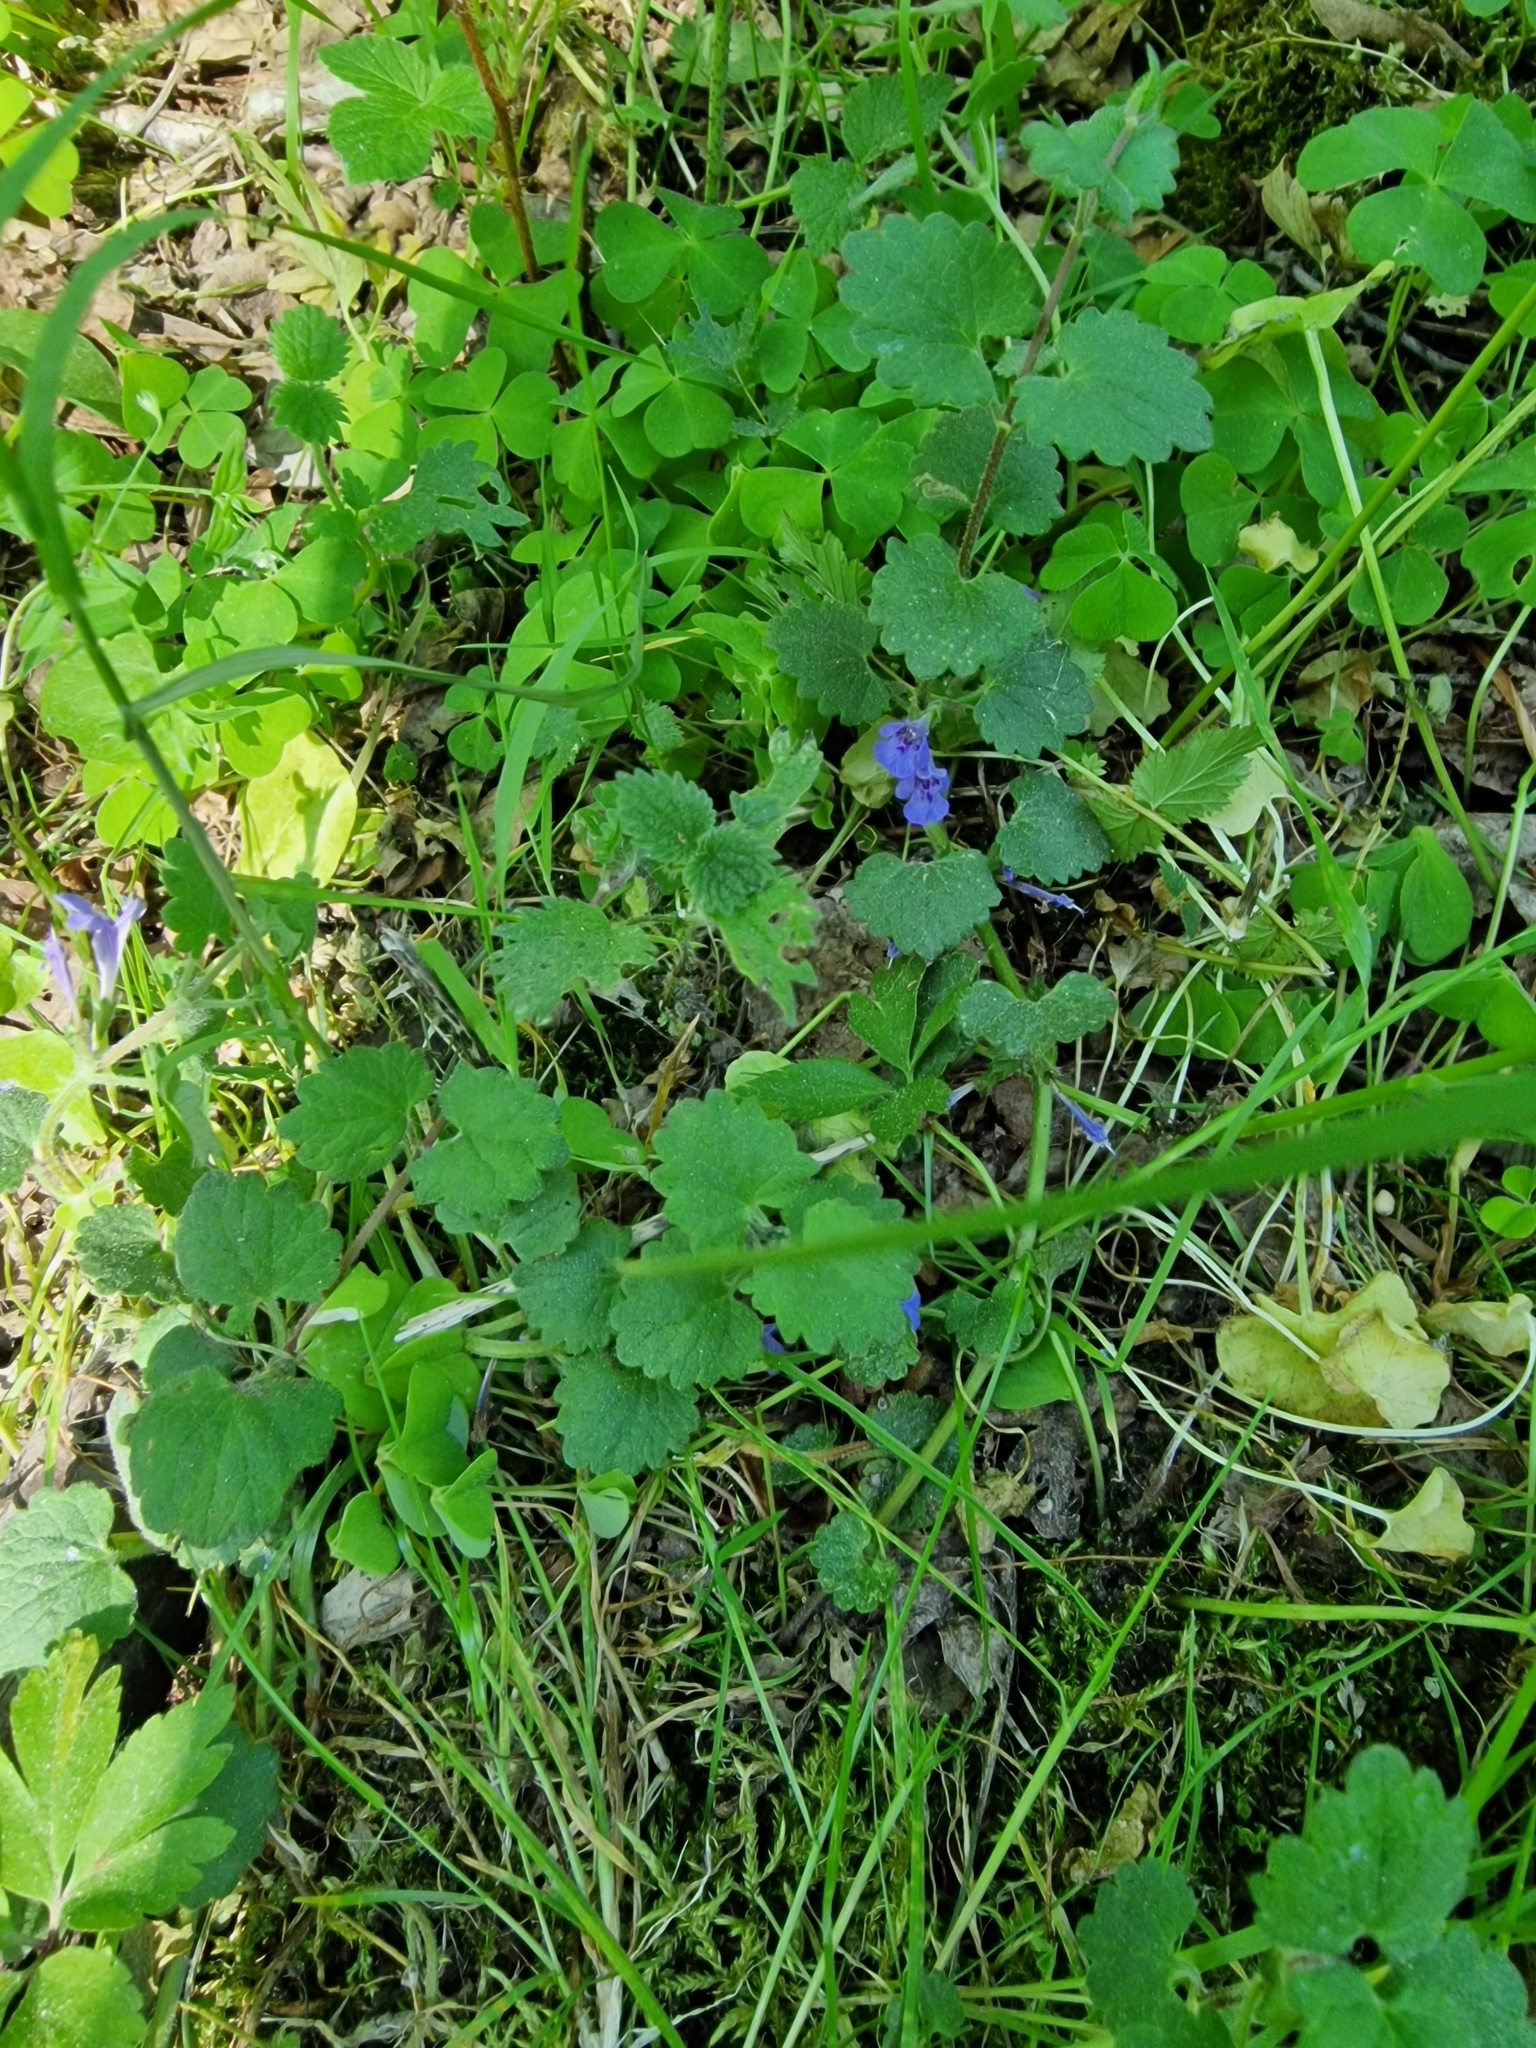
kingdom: Plantae
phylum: Tracheophyta
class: Magnoliopsida
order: Lamiales
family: Lamiaceae
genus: Glechoma
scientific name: Glechoma hederacea
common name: Ground ivy
